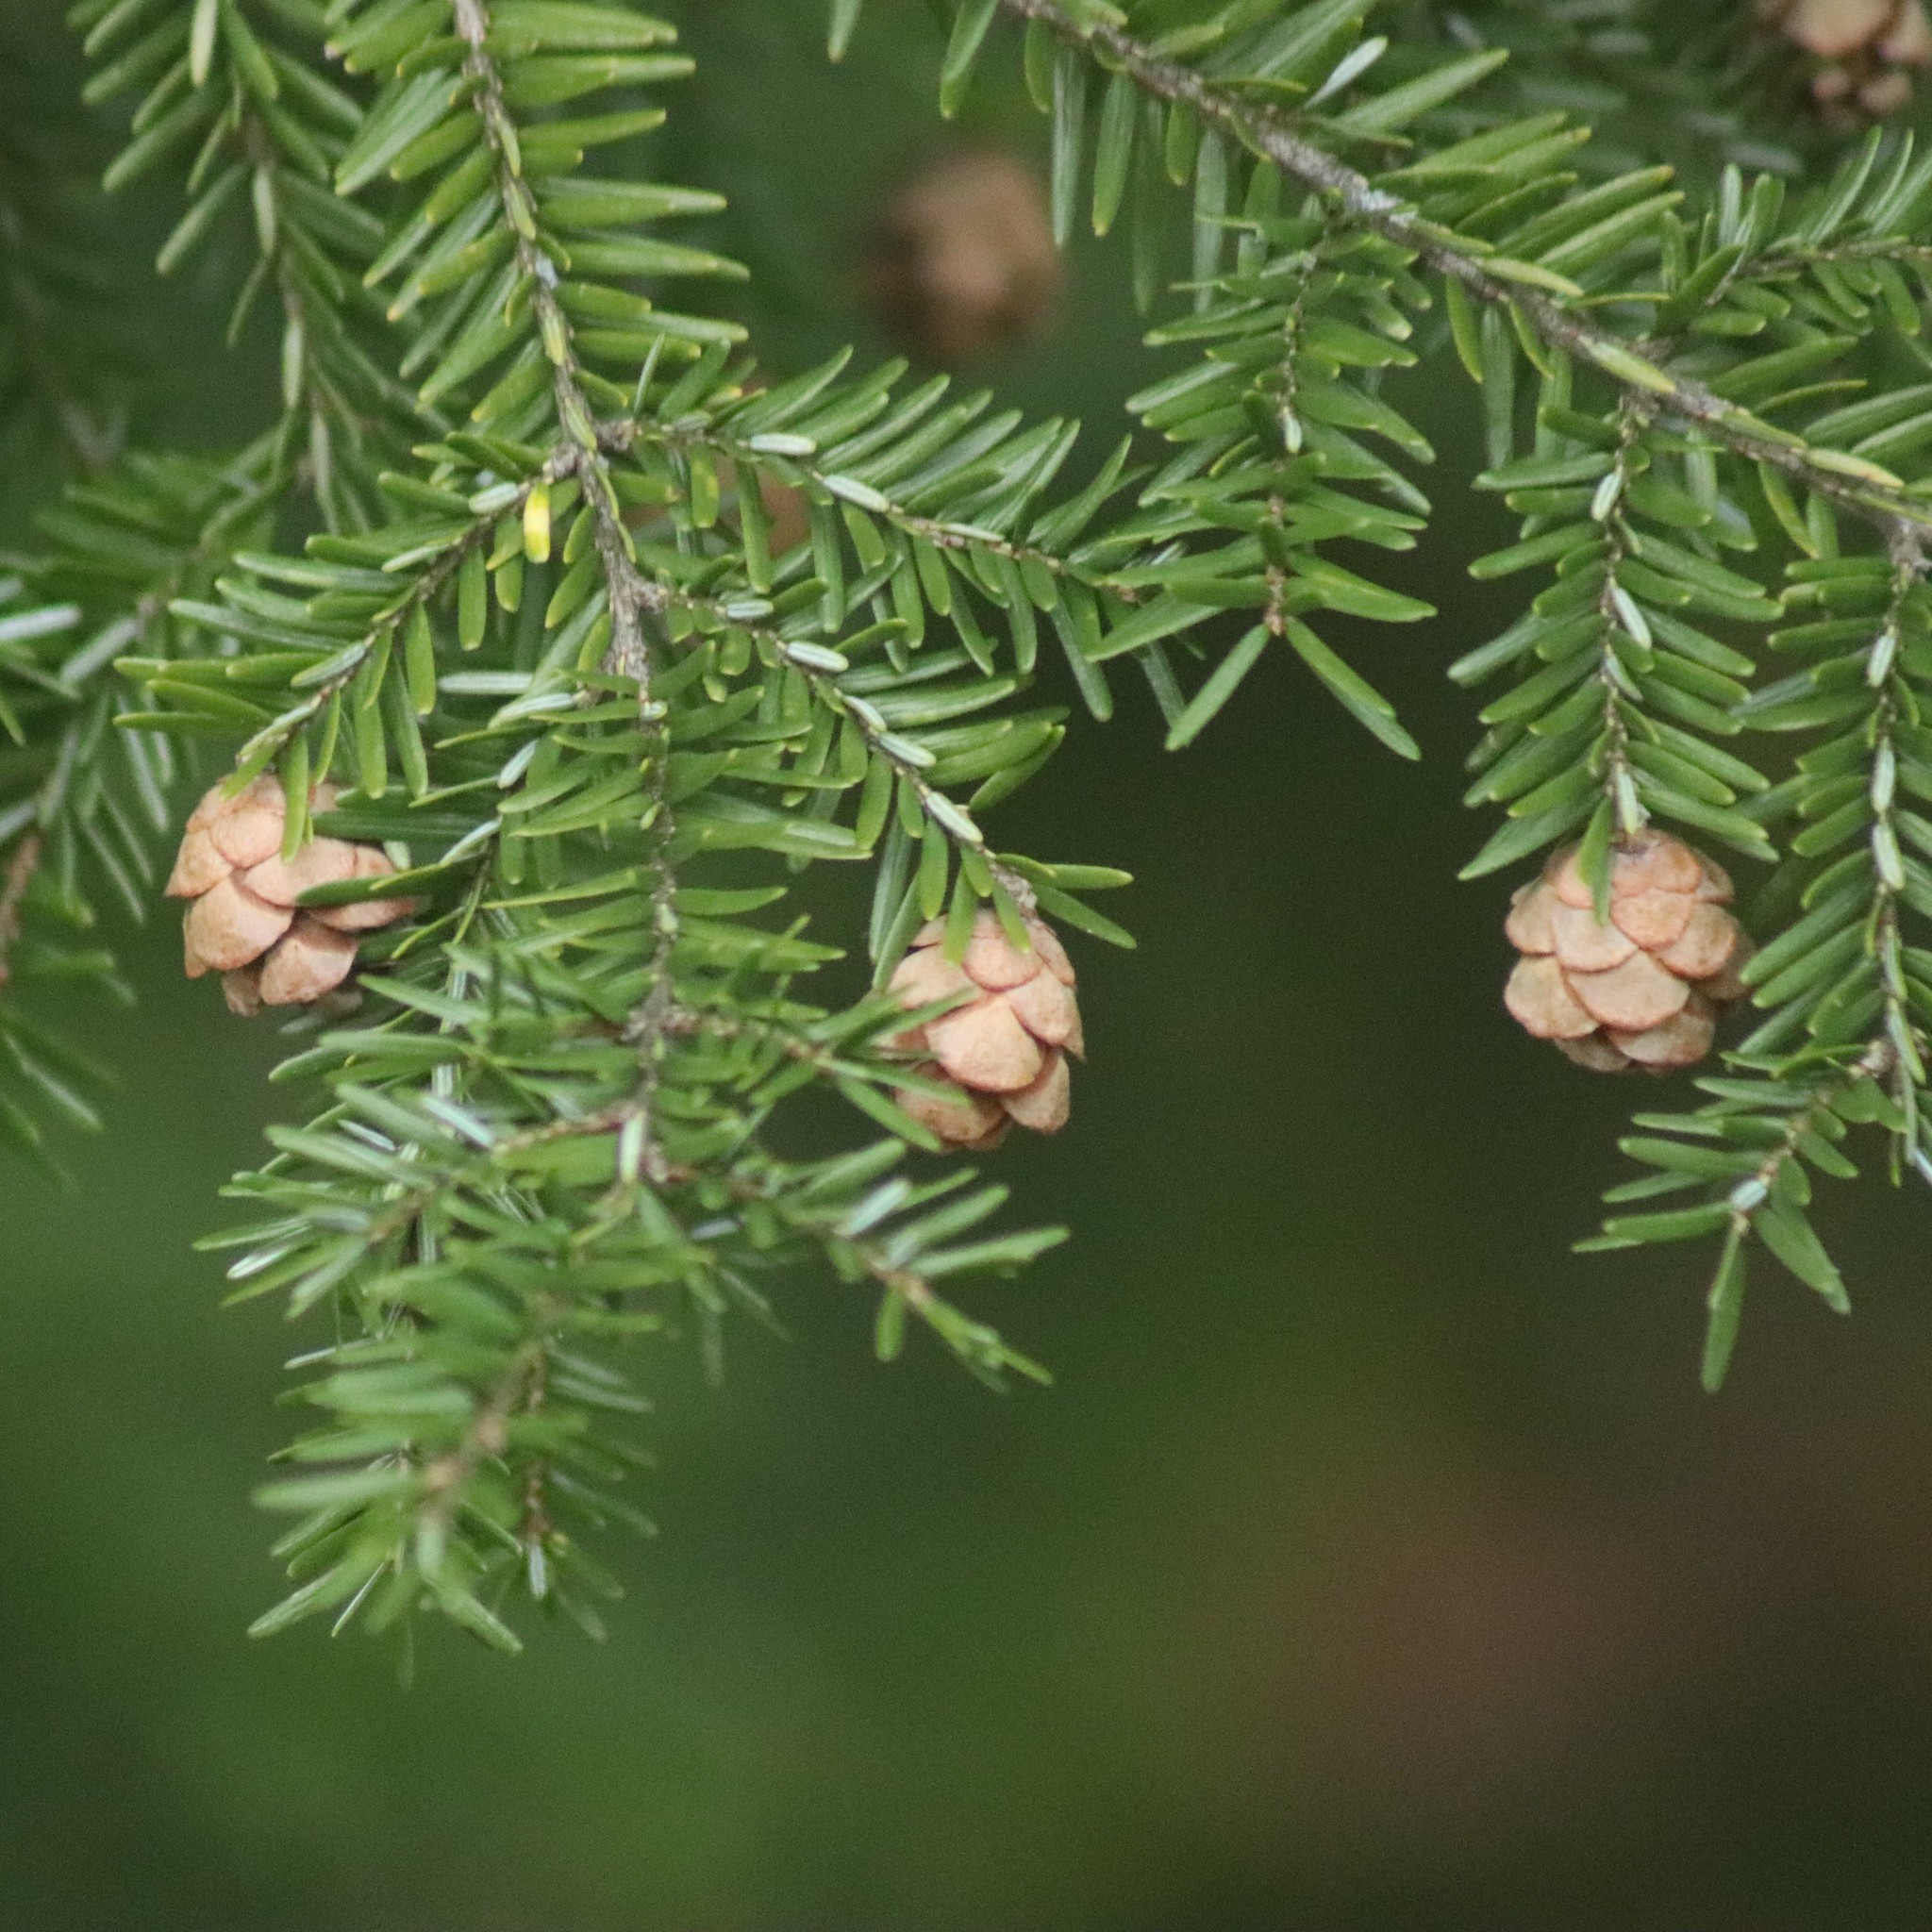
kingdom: Plantae
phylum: Tracheophyta
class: Pinopsida
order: Pinales
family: Pinaceae
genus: Tsuga
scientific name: Tsuga canadensis
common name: Eastern hemlock
